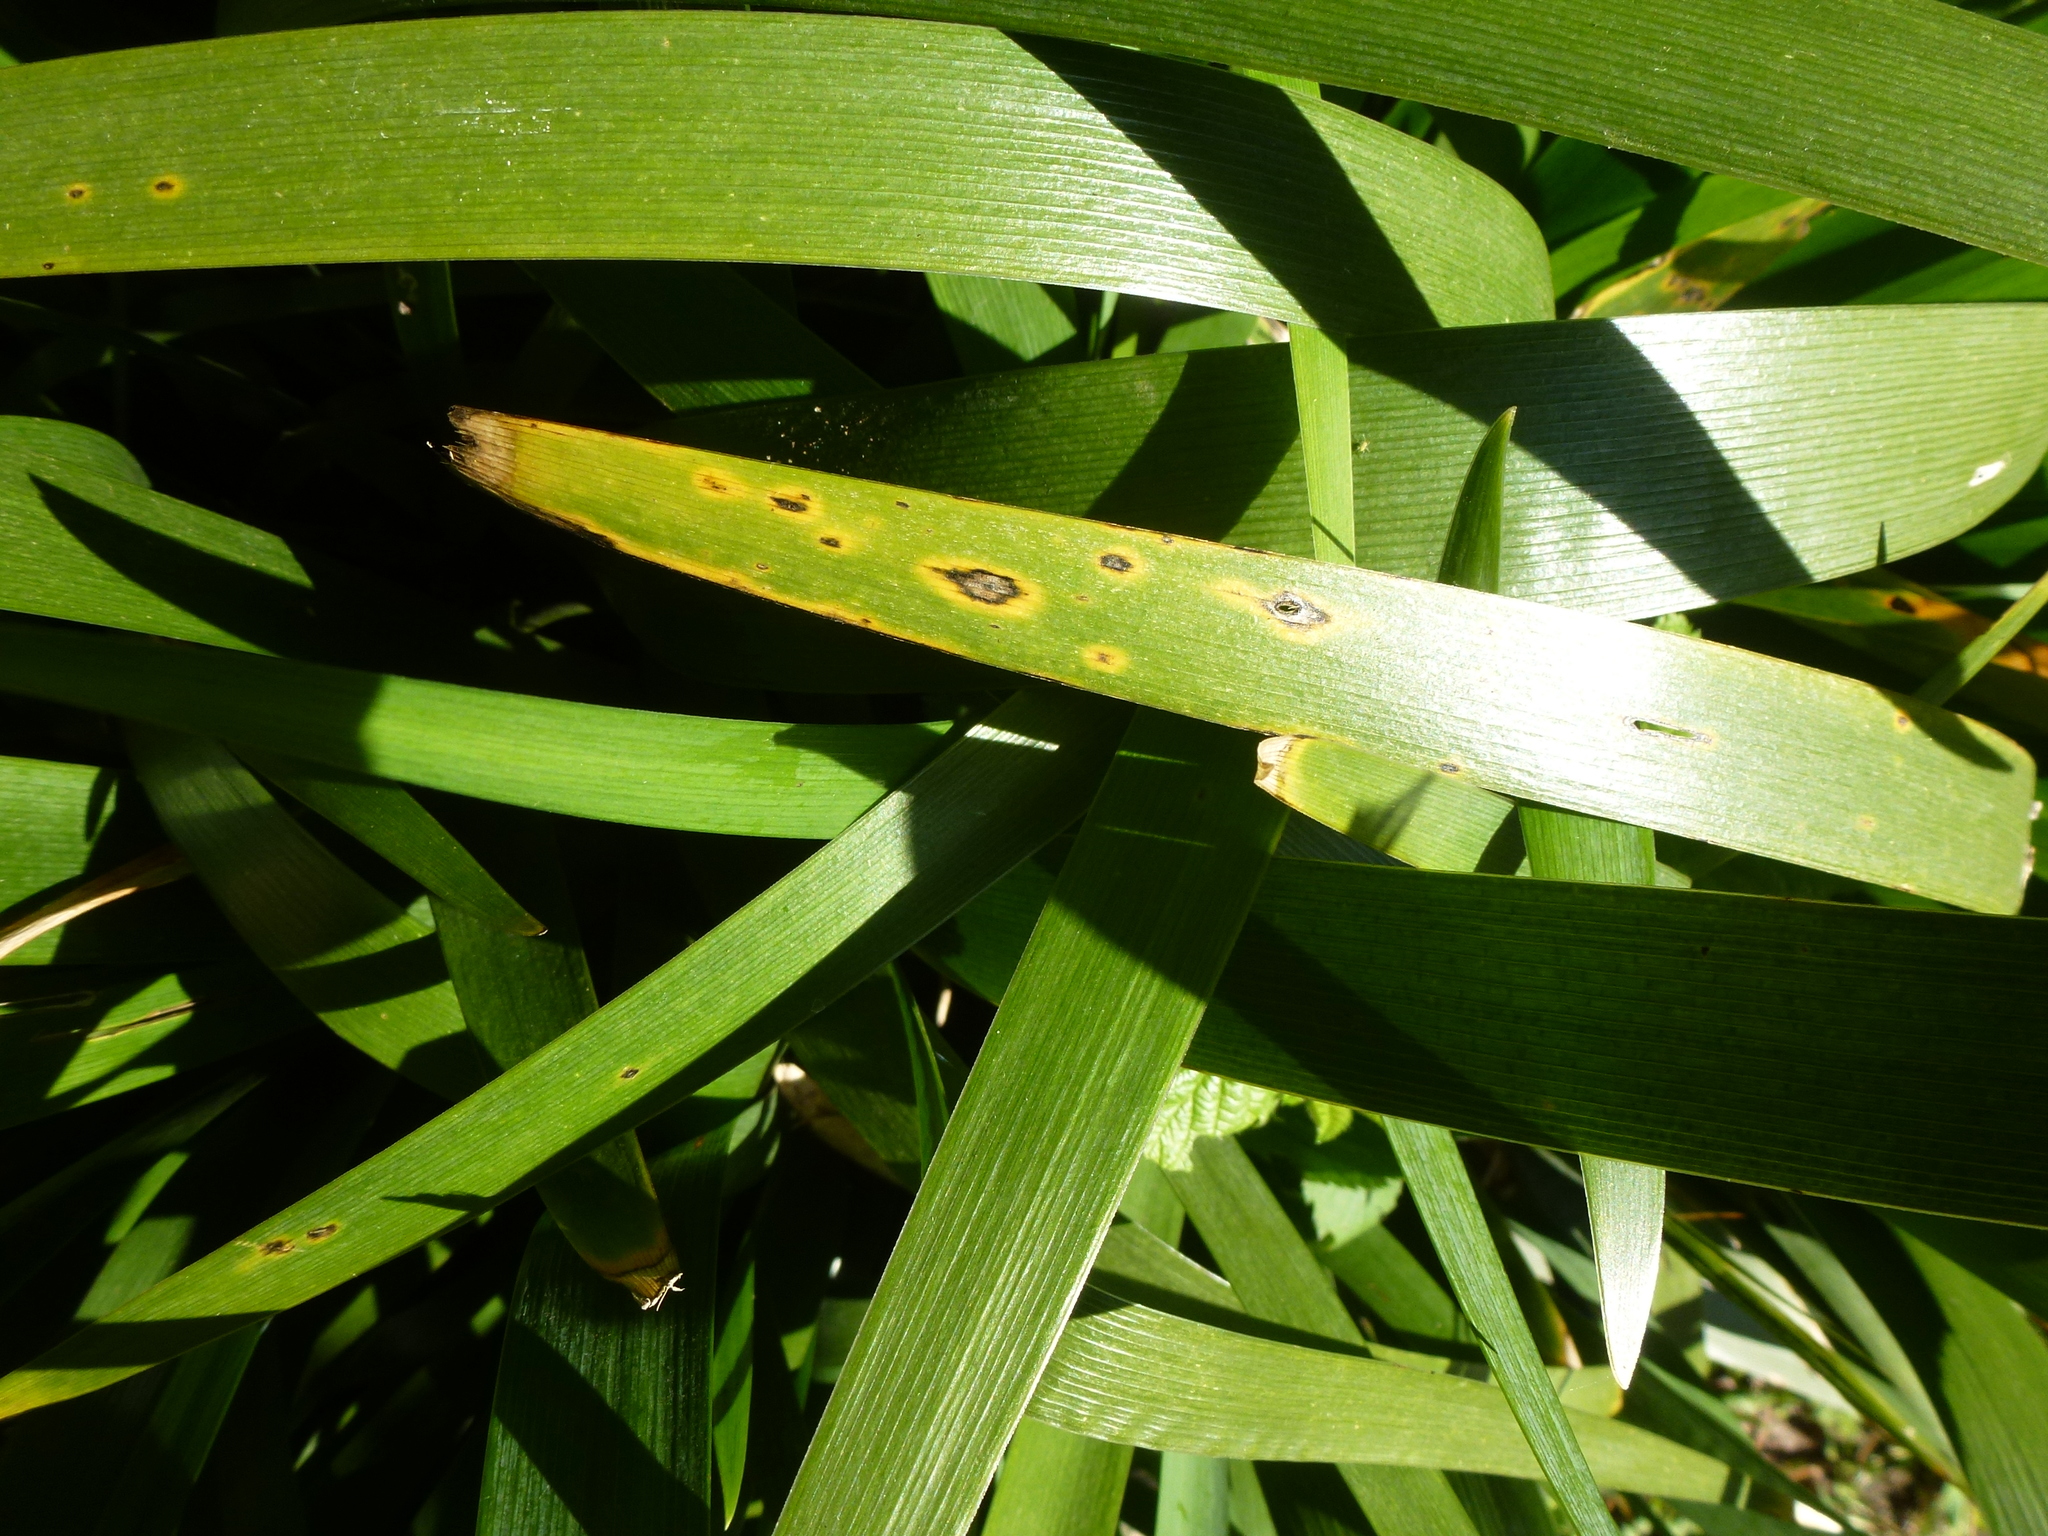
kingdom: Fungi
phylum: Basidiomycota
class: Pucciniomycetes
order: Pucciniales
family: Pucciniaceae
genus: Puccinia
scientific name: Puccinia iridis
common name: Iris rust
